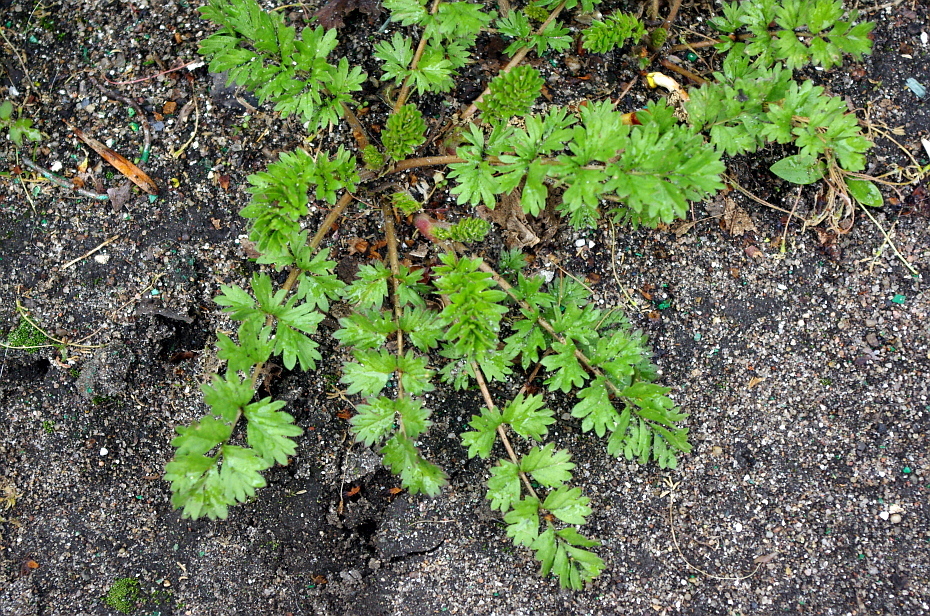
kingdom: Plantae
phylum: Tracheophyta
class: Magnoliopsida
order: Rosales
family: Rosaceae
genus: Potentilla
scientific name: Potentilla supina
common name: Prostrate cinquefoil
